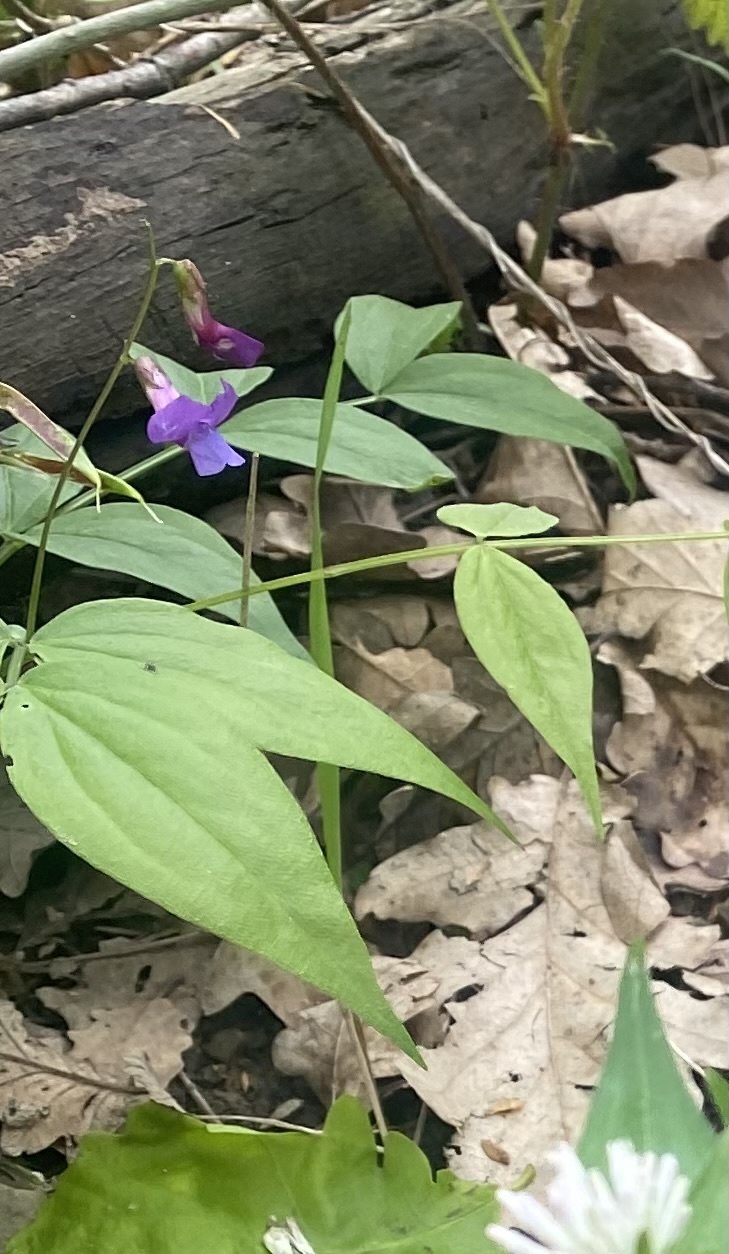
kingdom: Plantae
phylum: Tracheophyta
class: Magnoliopsida
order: Fabales
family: Fabaceae
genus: Lathyrus
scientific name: Lathyrus vernus
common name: Spring pea
